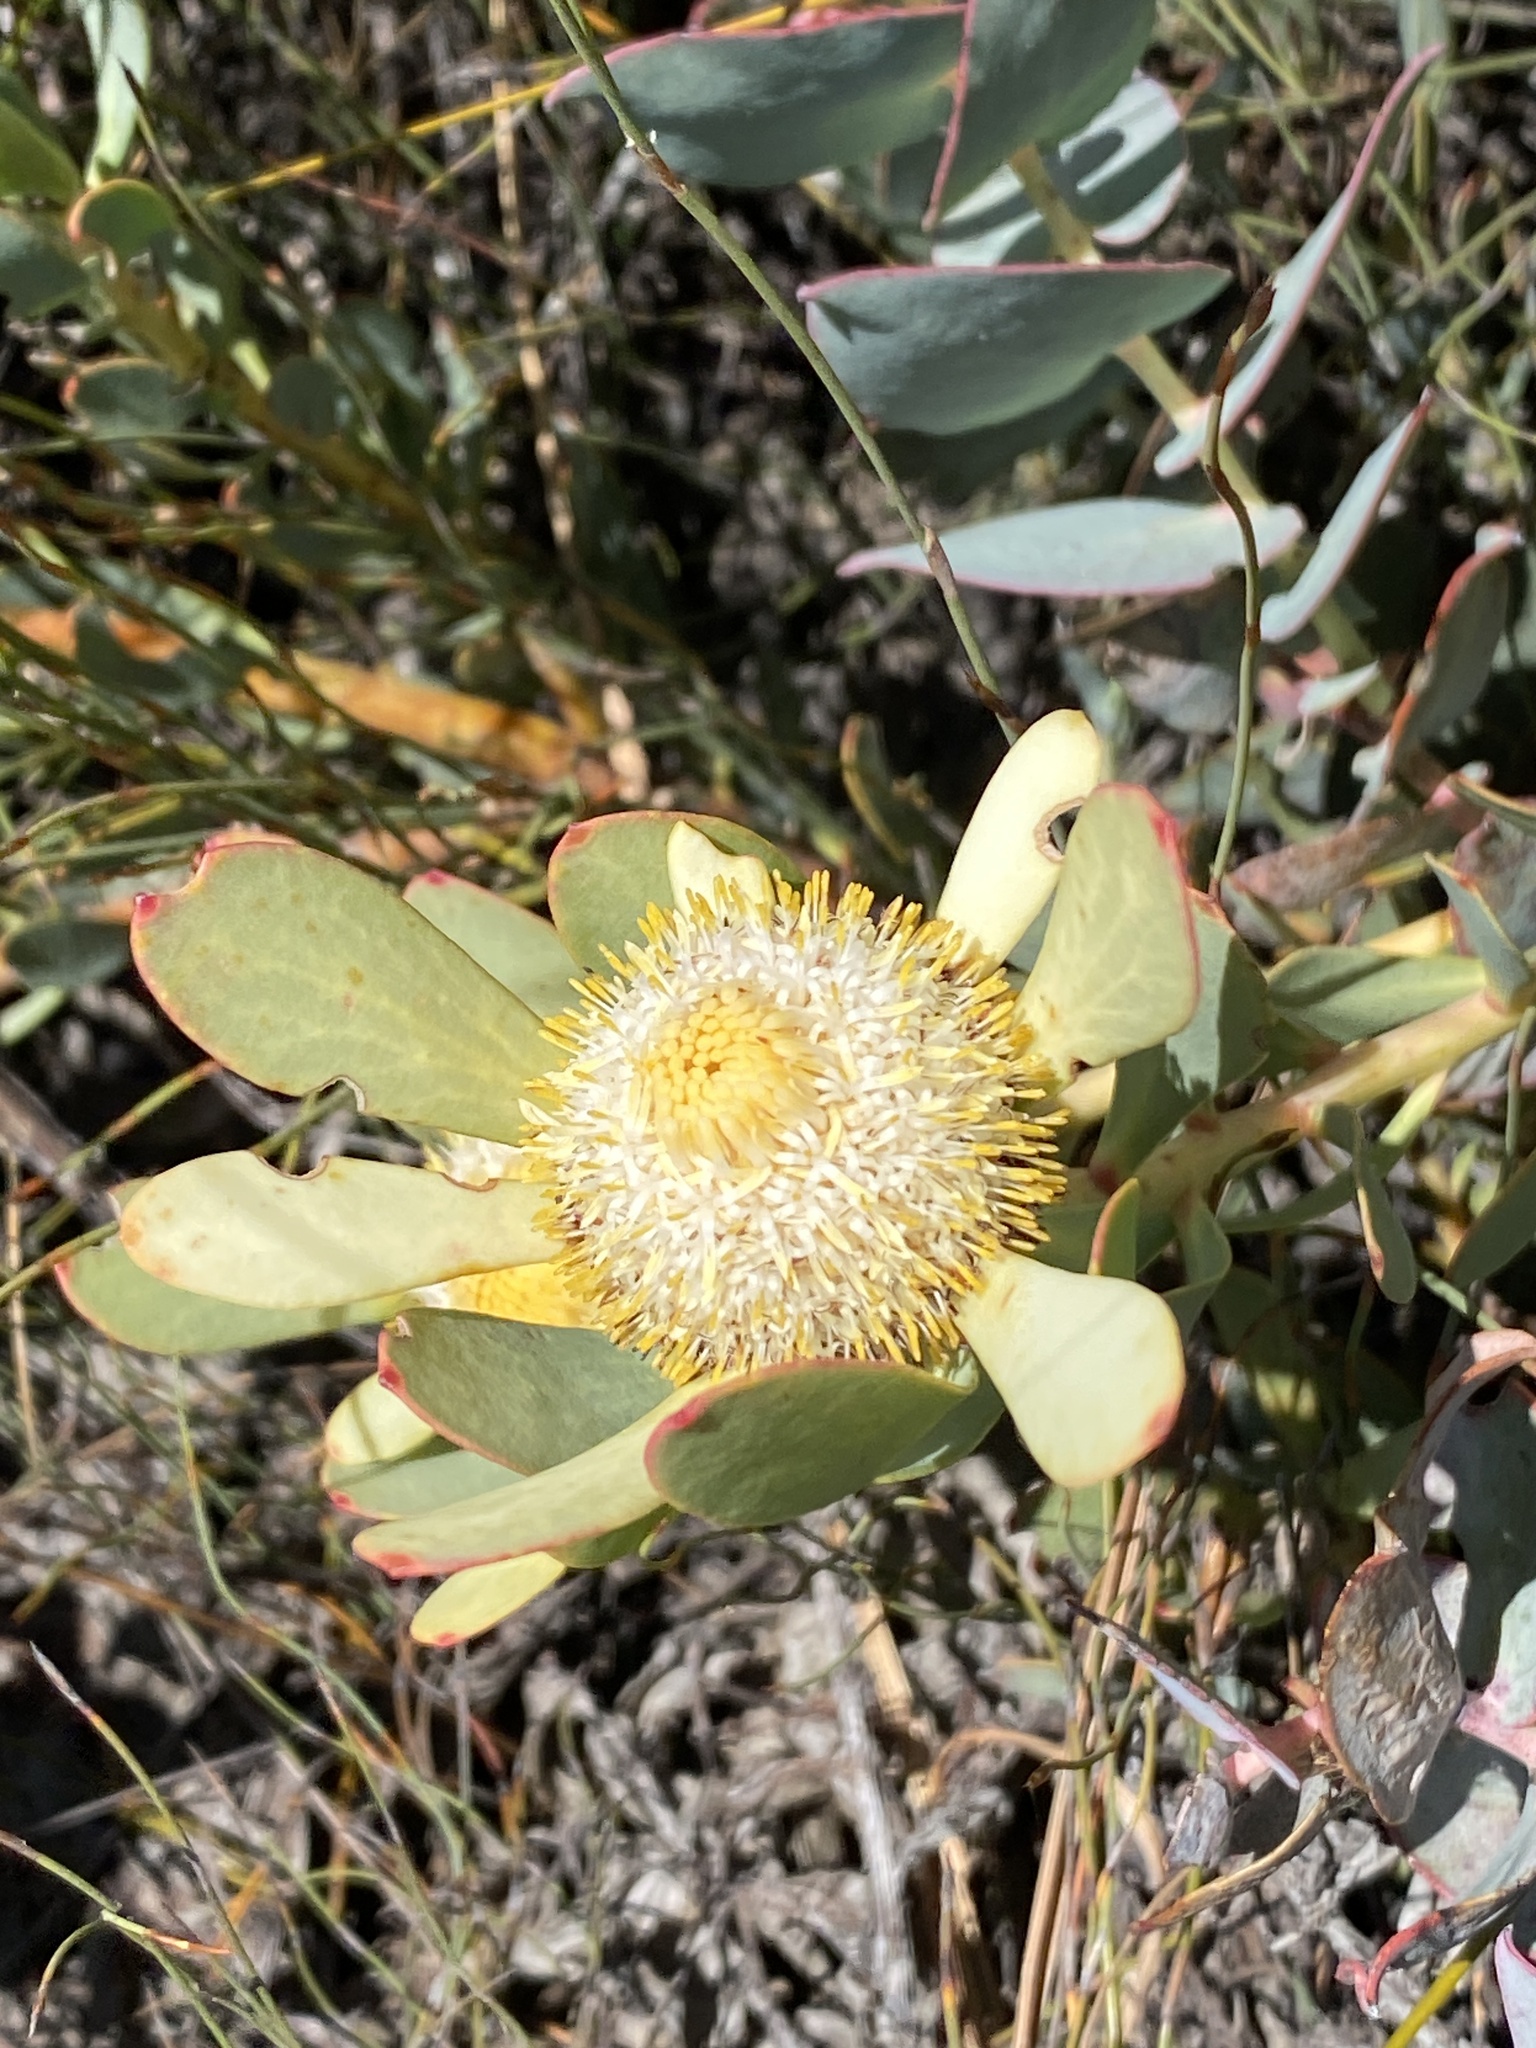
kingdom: Plantae
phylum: Tracheophyta
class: Magnoliopsida
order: Proteales
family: Proteaceae
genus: Leucadendron
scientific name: Leucadendron arcuatum
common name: Red-edge conebush
